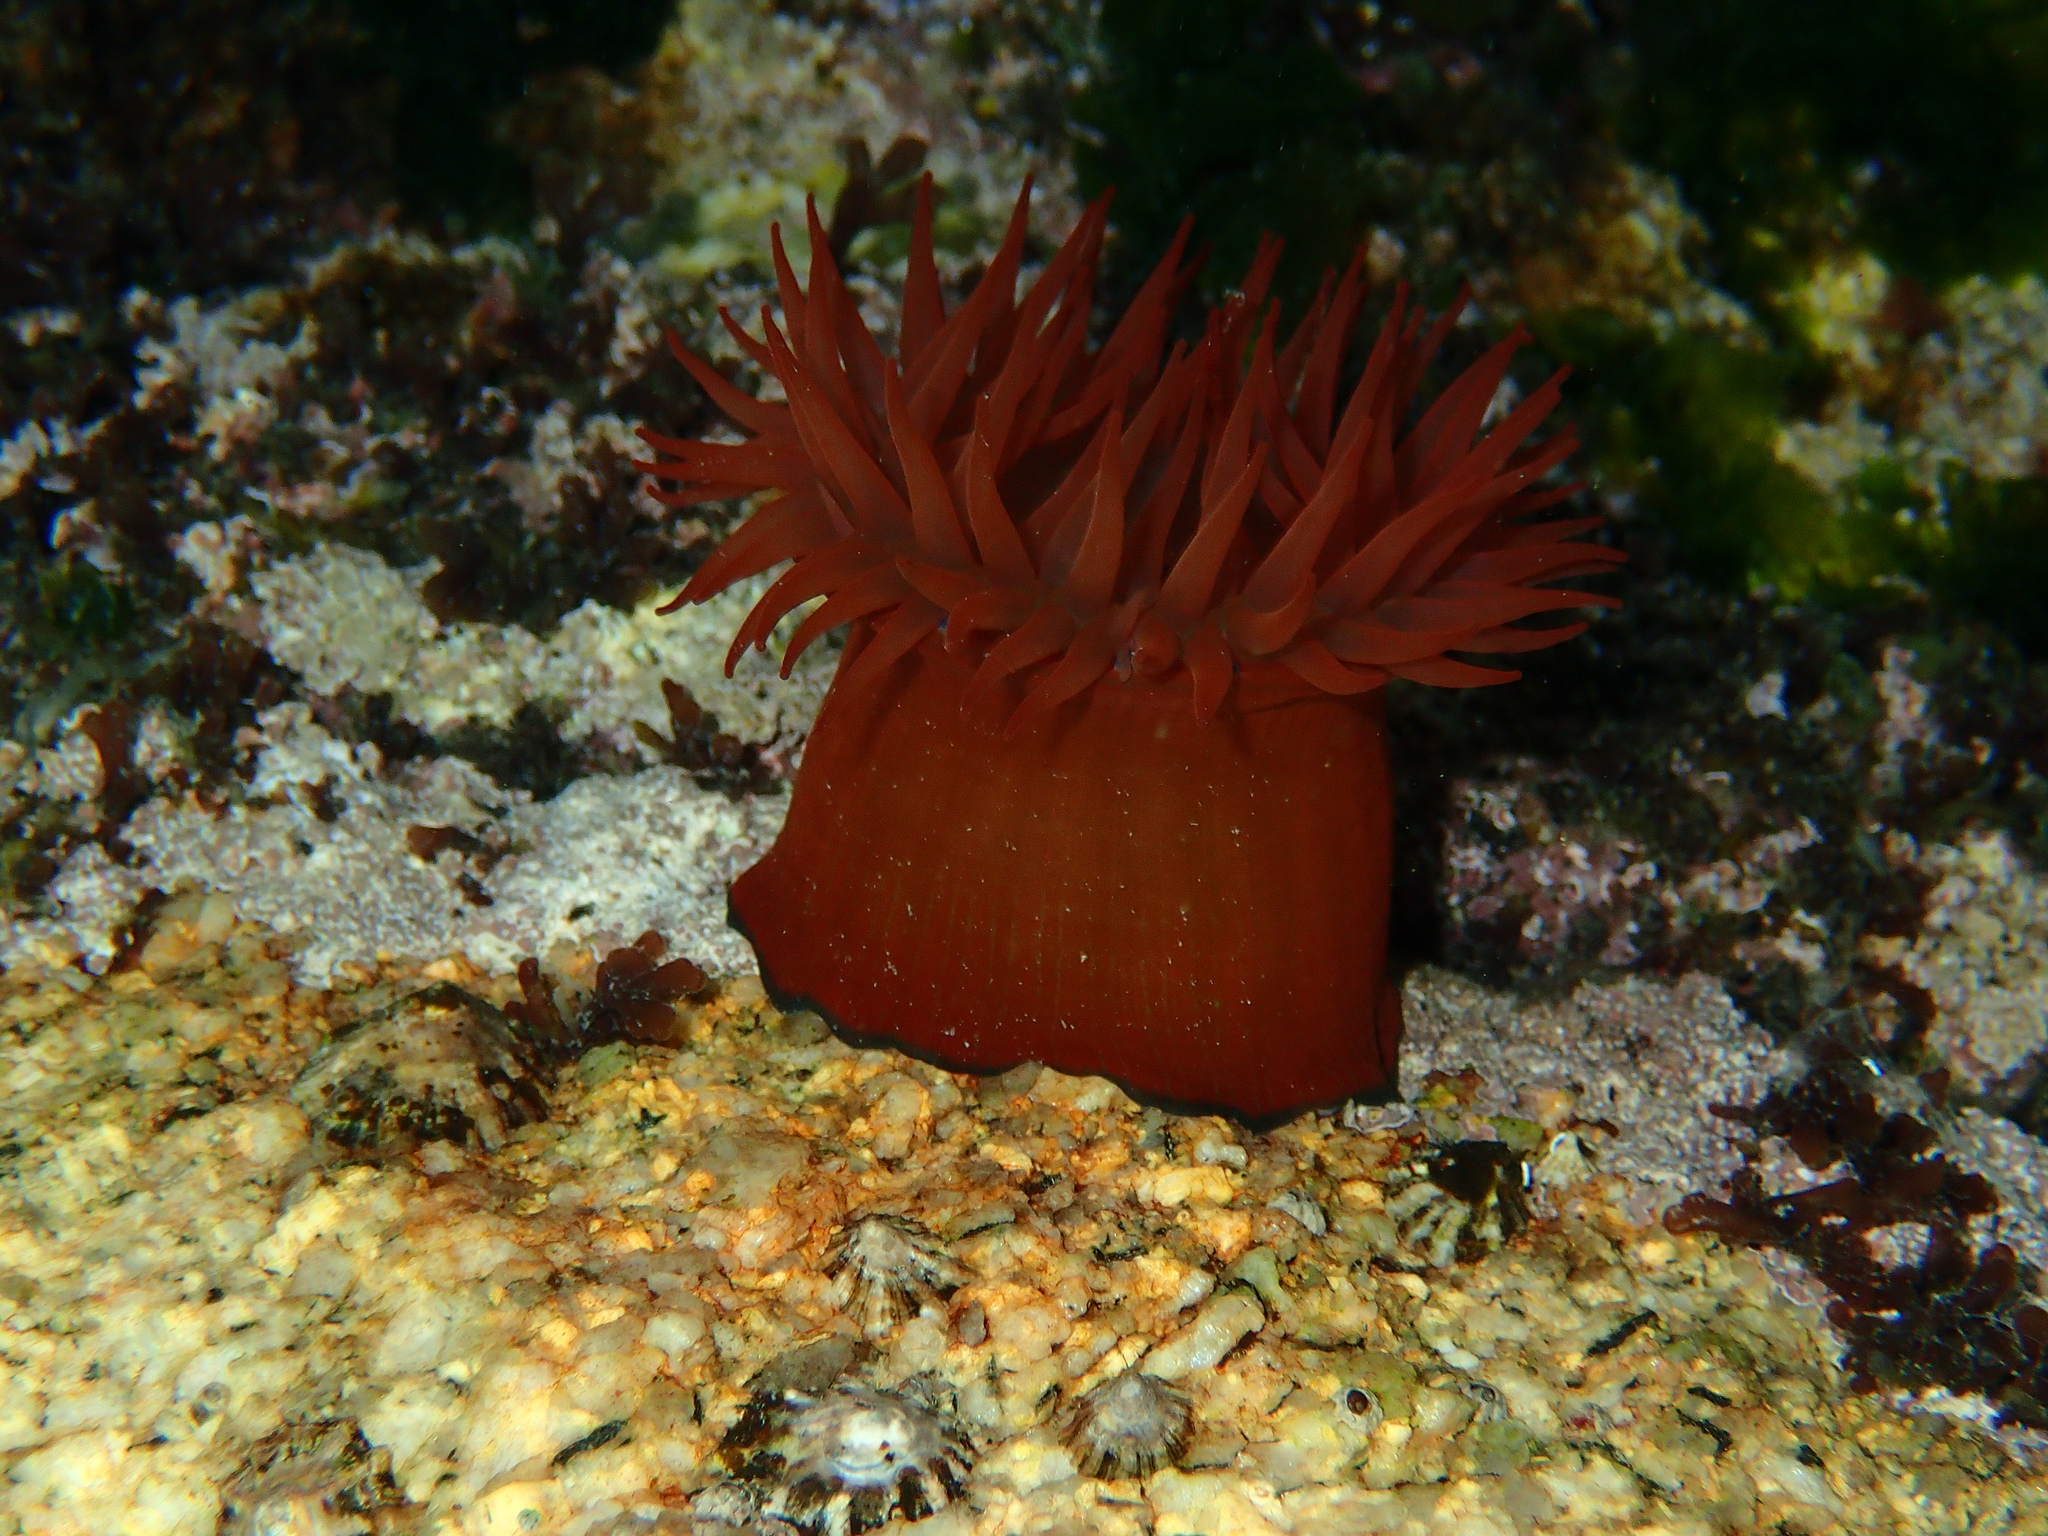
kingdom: Animalia
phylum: Cnidaria
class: Anthozoa
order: Actiniaria
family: Actiniidae
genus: Actinia
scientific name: Actinia equina
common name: Beadlet anemone
